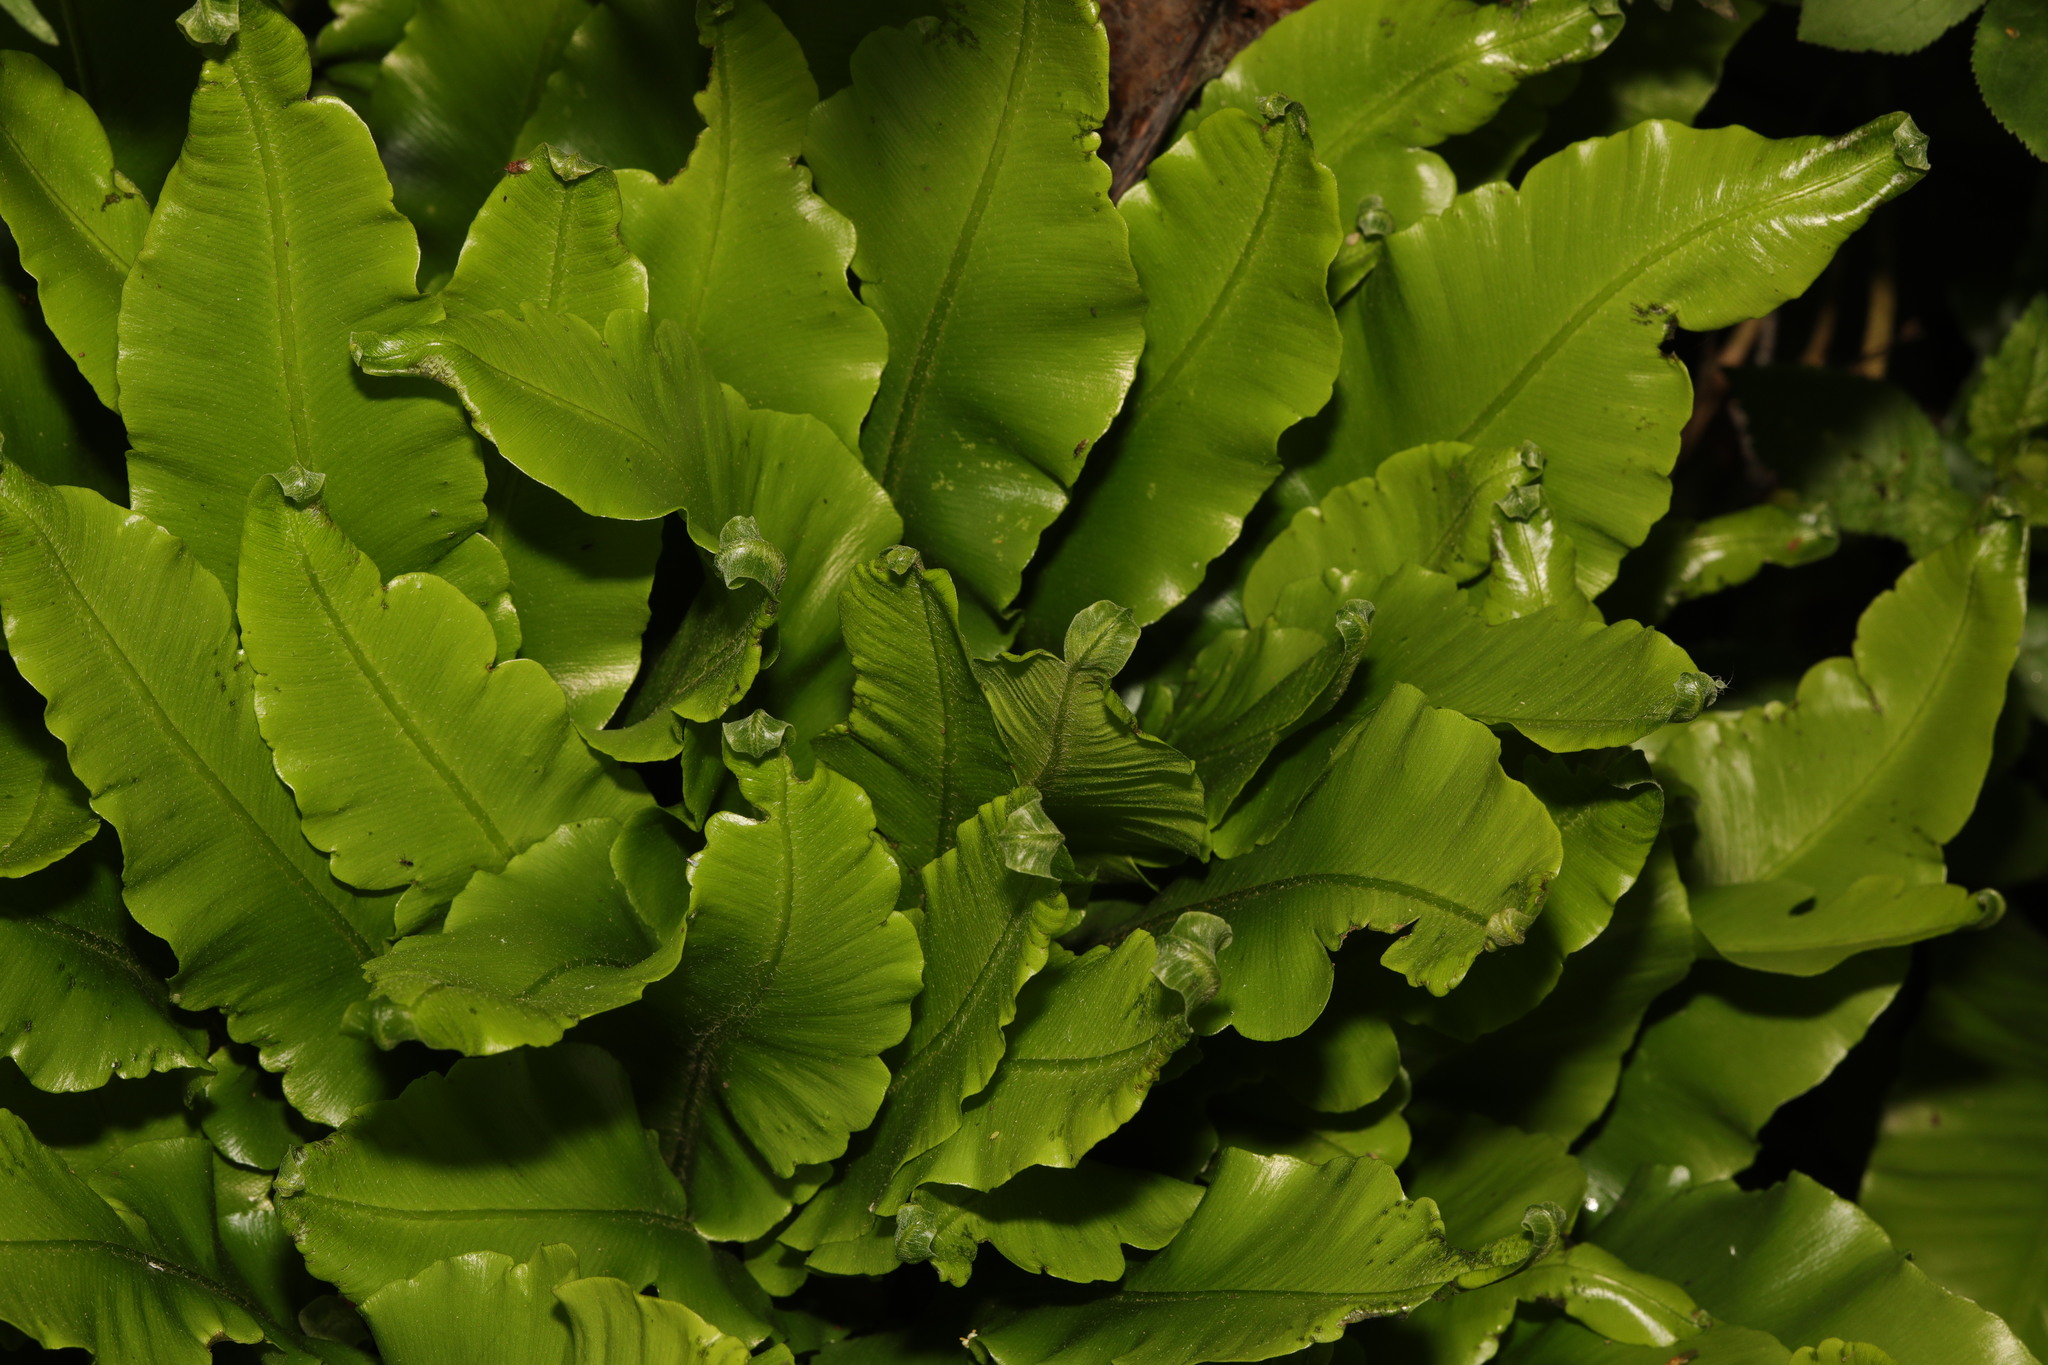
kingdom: Plantae
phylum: Tracheophyta
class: Polypodiopsida
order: Polypodiales
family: Aspleniaceae
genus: Asplenium
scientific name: Asplenium scolopendrium
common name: Hart's-tongue fern
